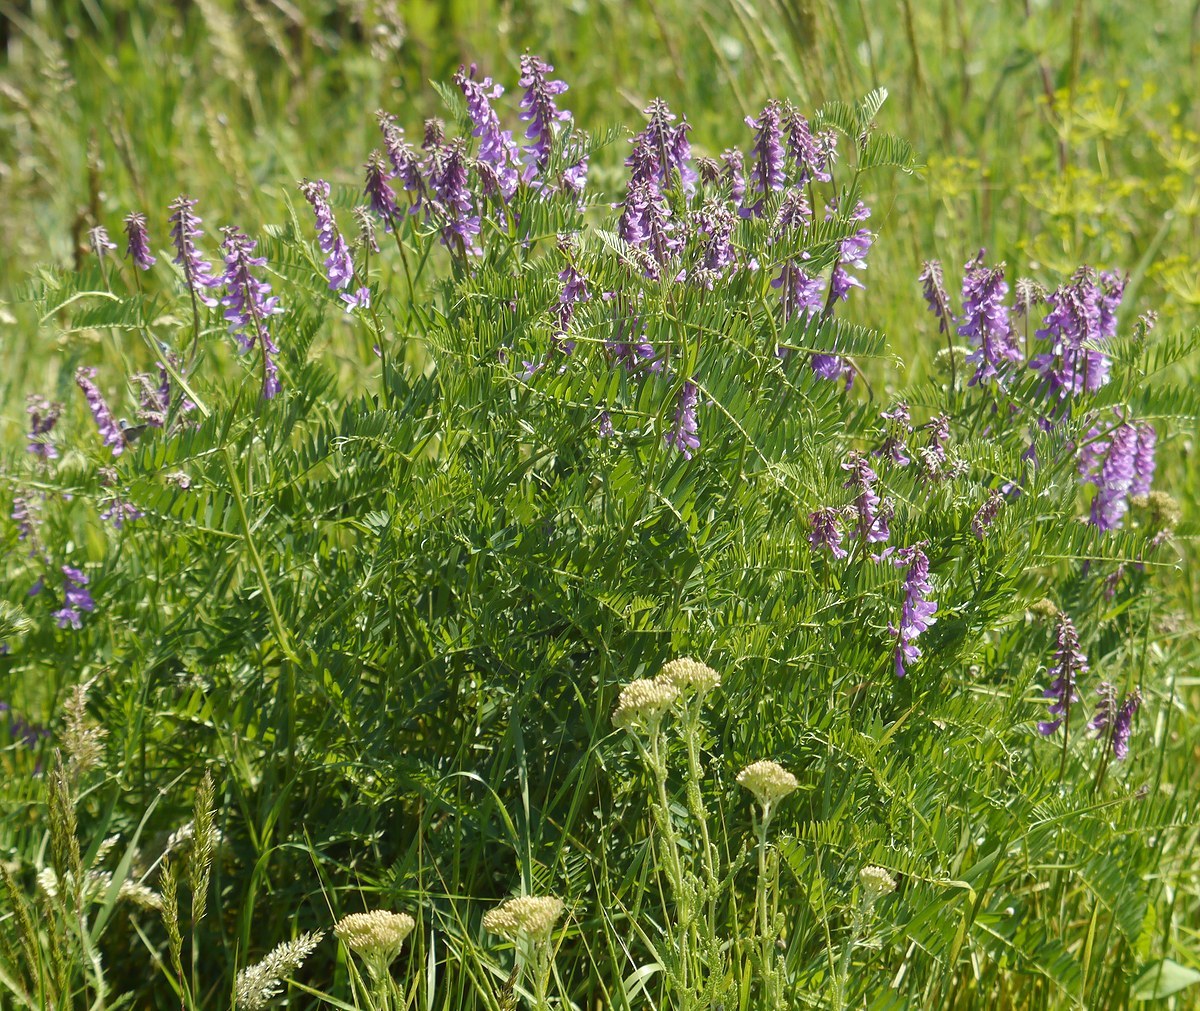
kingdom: Plantae
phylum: Tracheophyta
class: Magnoliopsida
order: Fabales
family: Fabaceae
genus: Vicia
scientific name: Vicia tenuifolia
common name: Fine-leaved vetch
